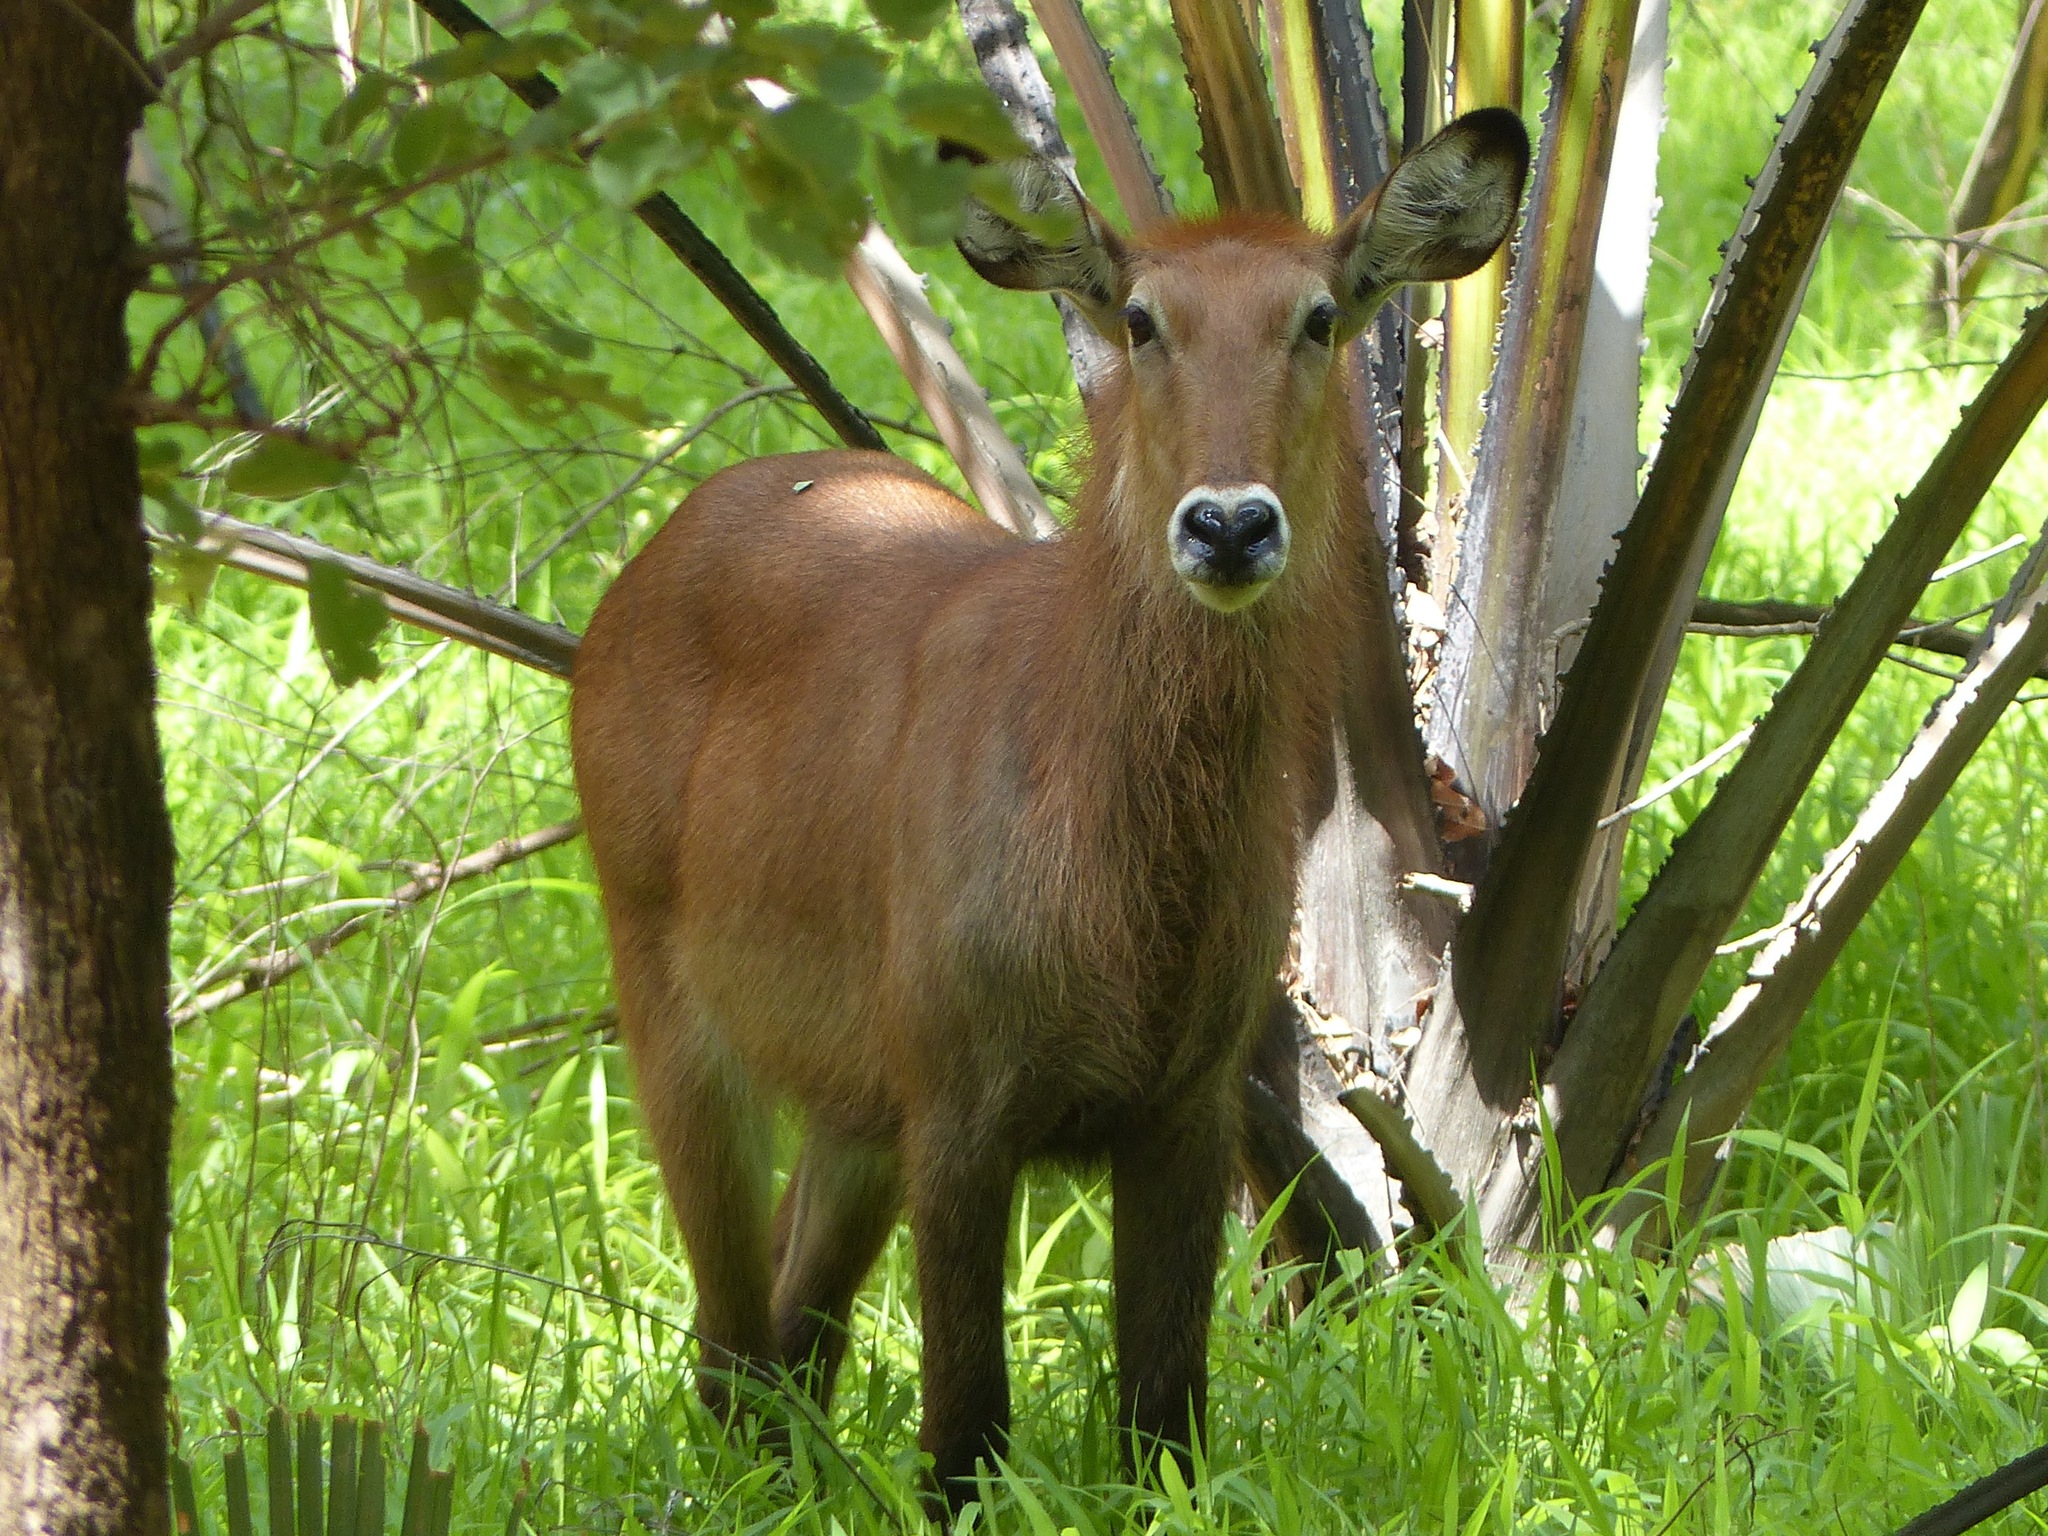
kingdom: Animalia
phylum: Chordata
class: Mammalia
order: Artiodactyla
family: Bovidae
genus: Kobus
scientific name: Kobus ellipsiprymnus
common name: Waterbuck
